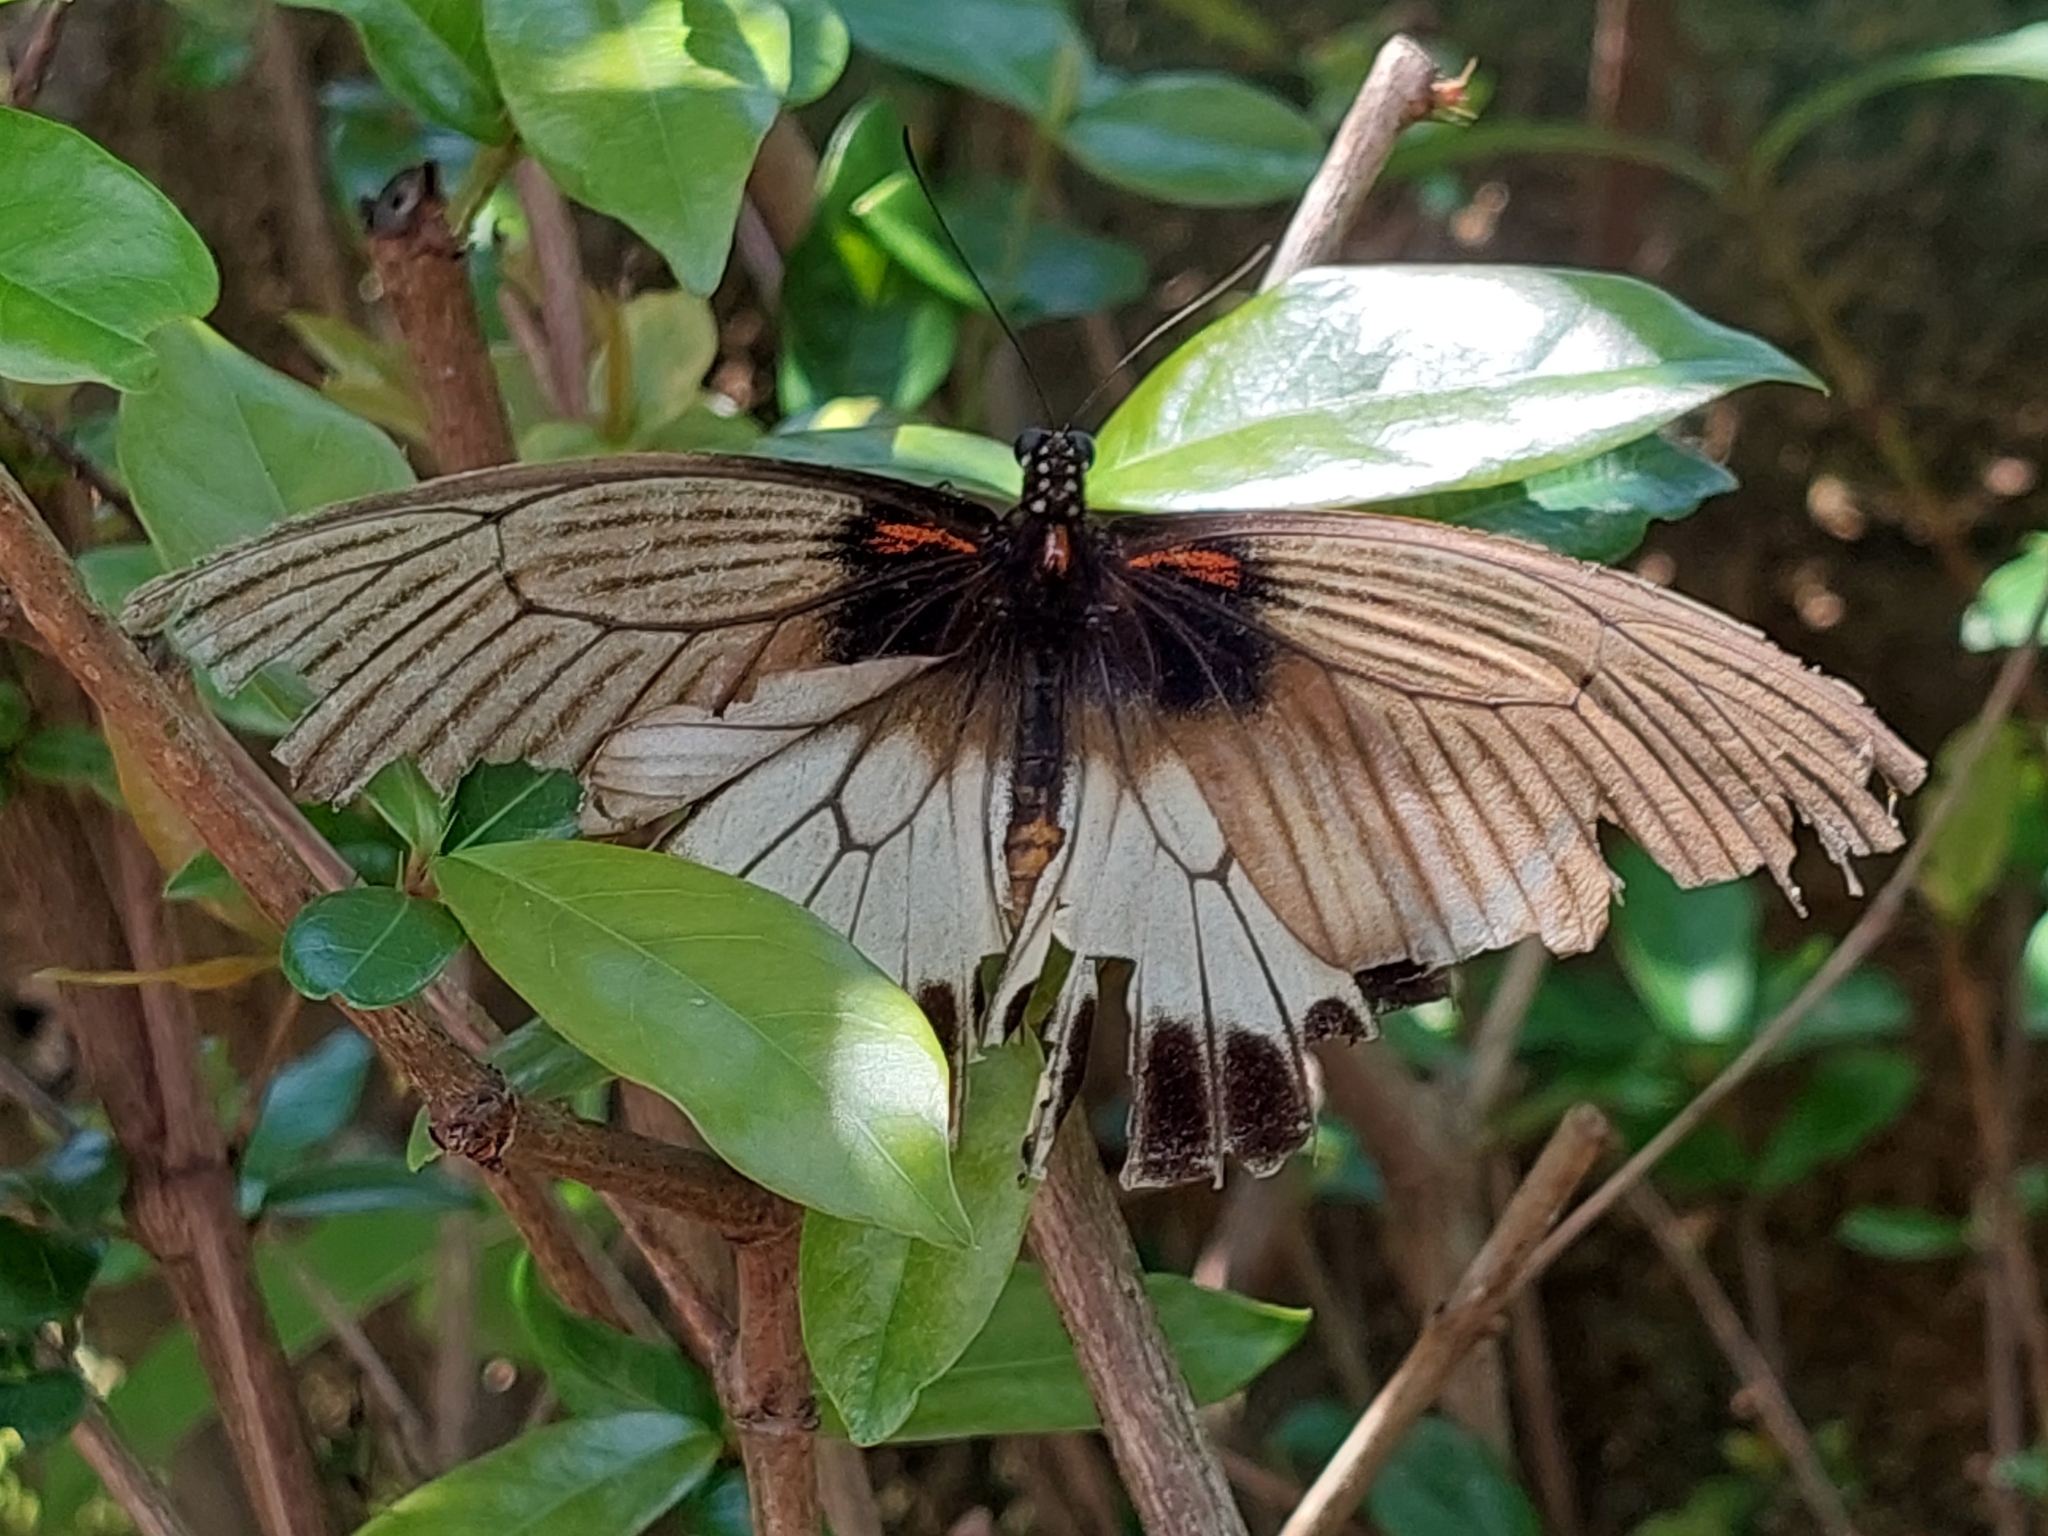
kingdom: Animalia
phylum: Arthropoda
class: Insecta
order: Lepidoptera
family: Papilionidae
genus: Papilio
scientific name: Papilio memnon
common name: Great mormon
